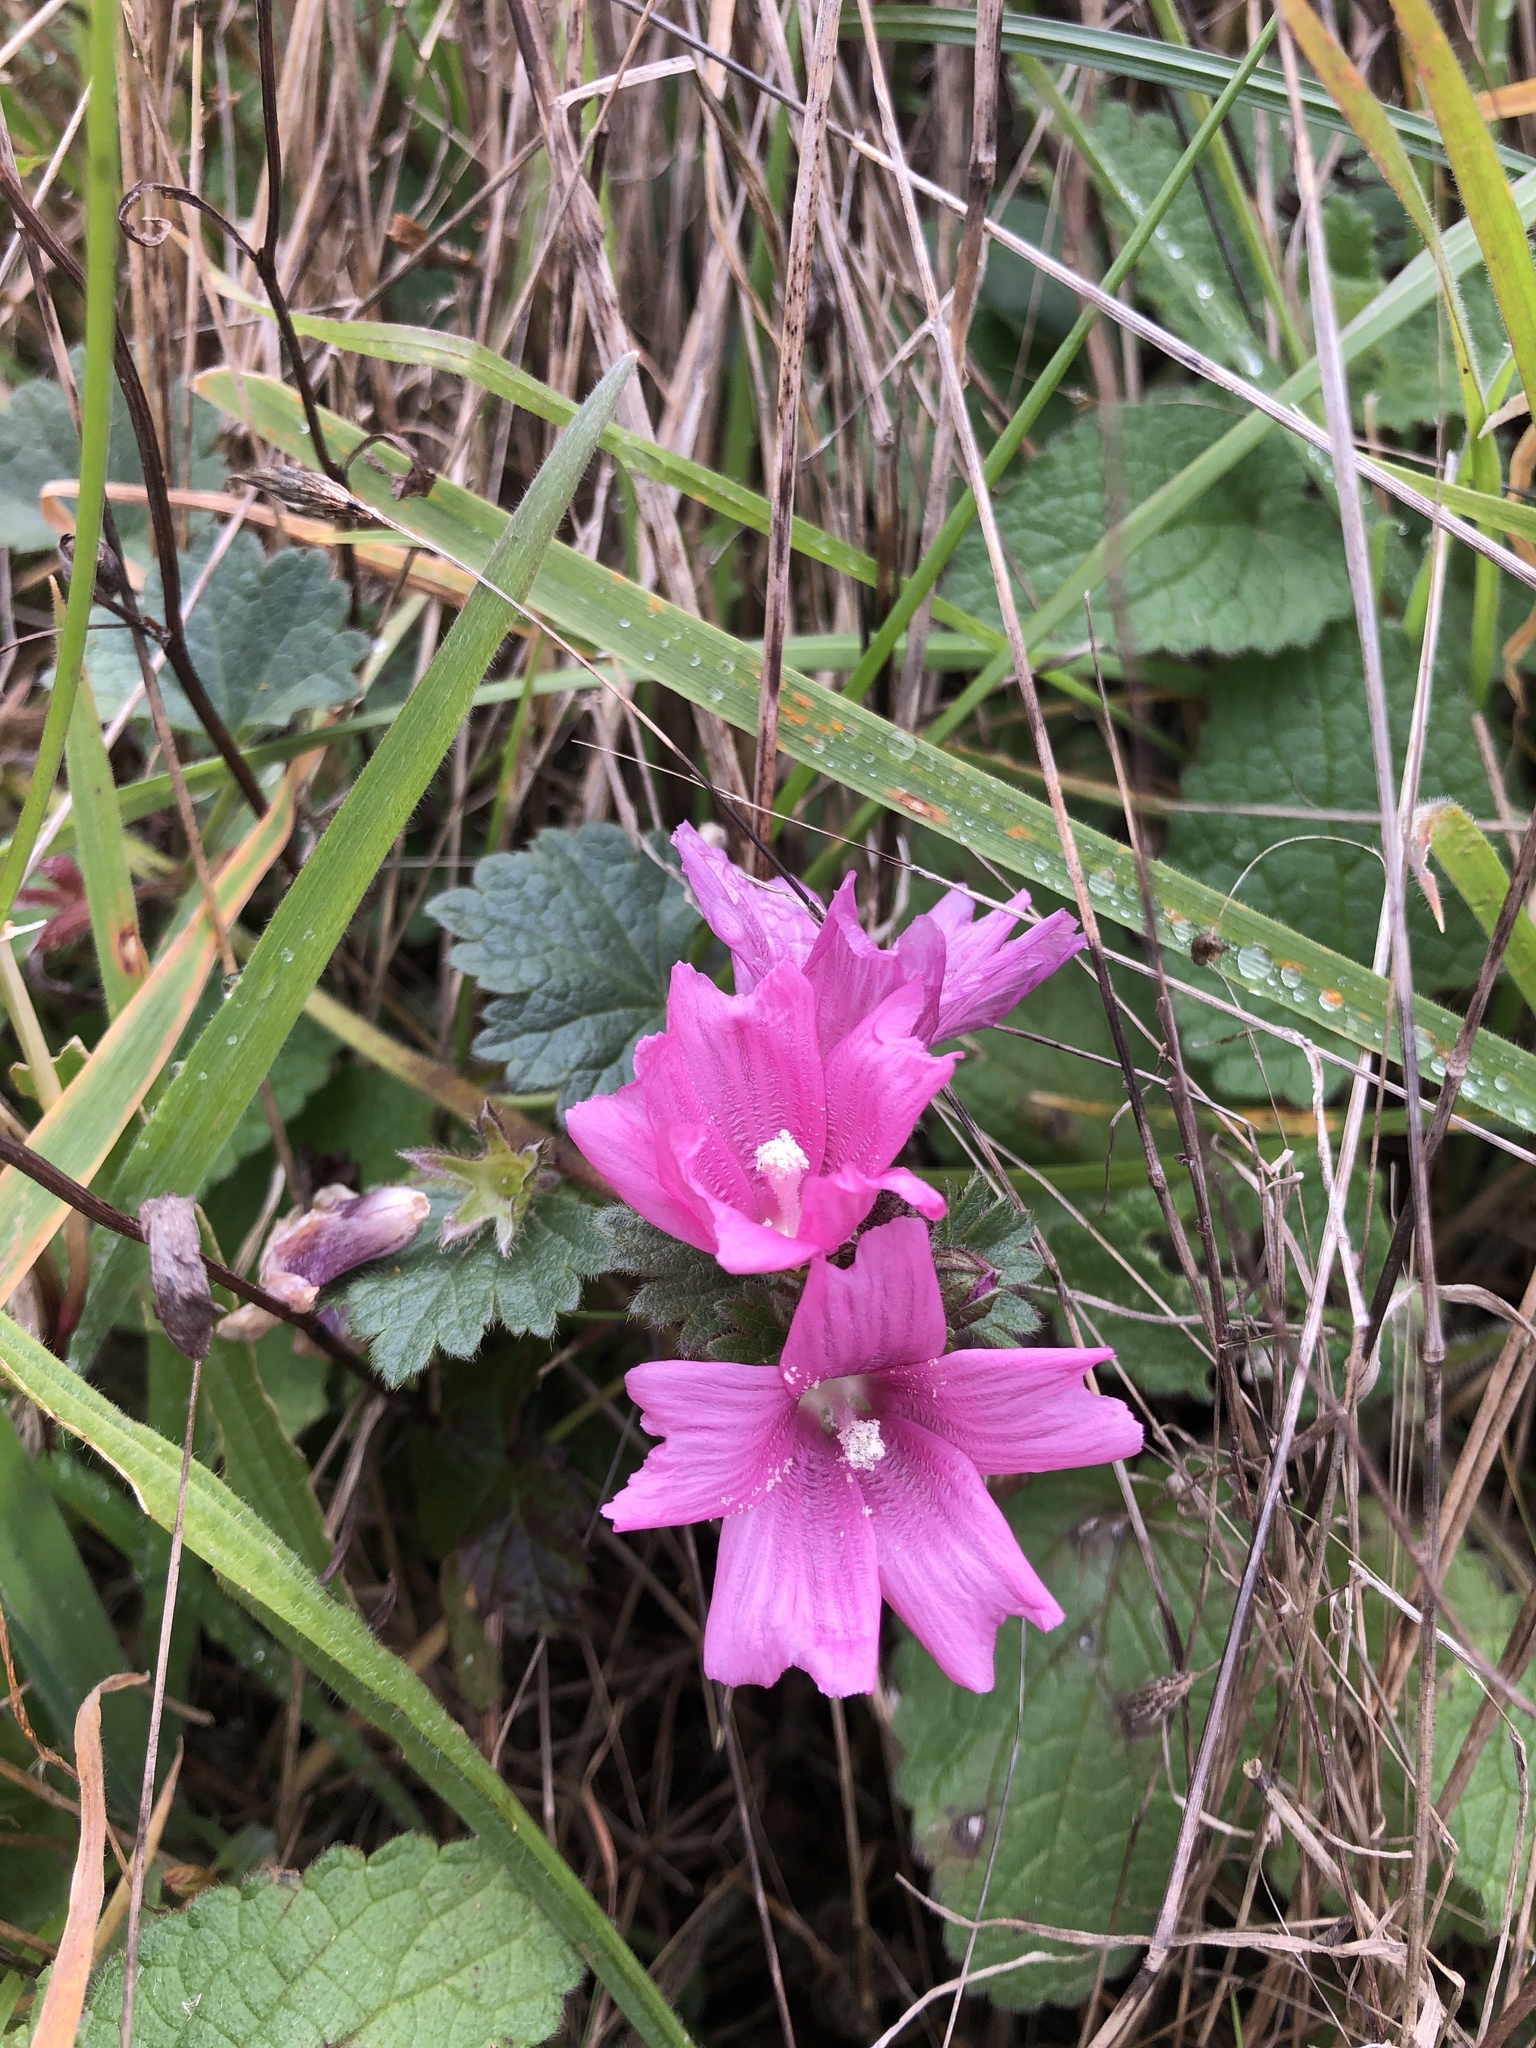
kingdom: Plantae
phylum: Tracheophyta
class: Magnoliopsida
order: Malvales
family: Malvaceae
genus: Sidalcea
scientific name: Sidalcea malviflora
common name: Greek mallow
